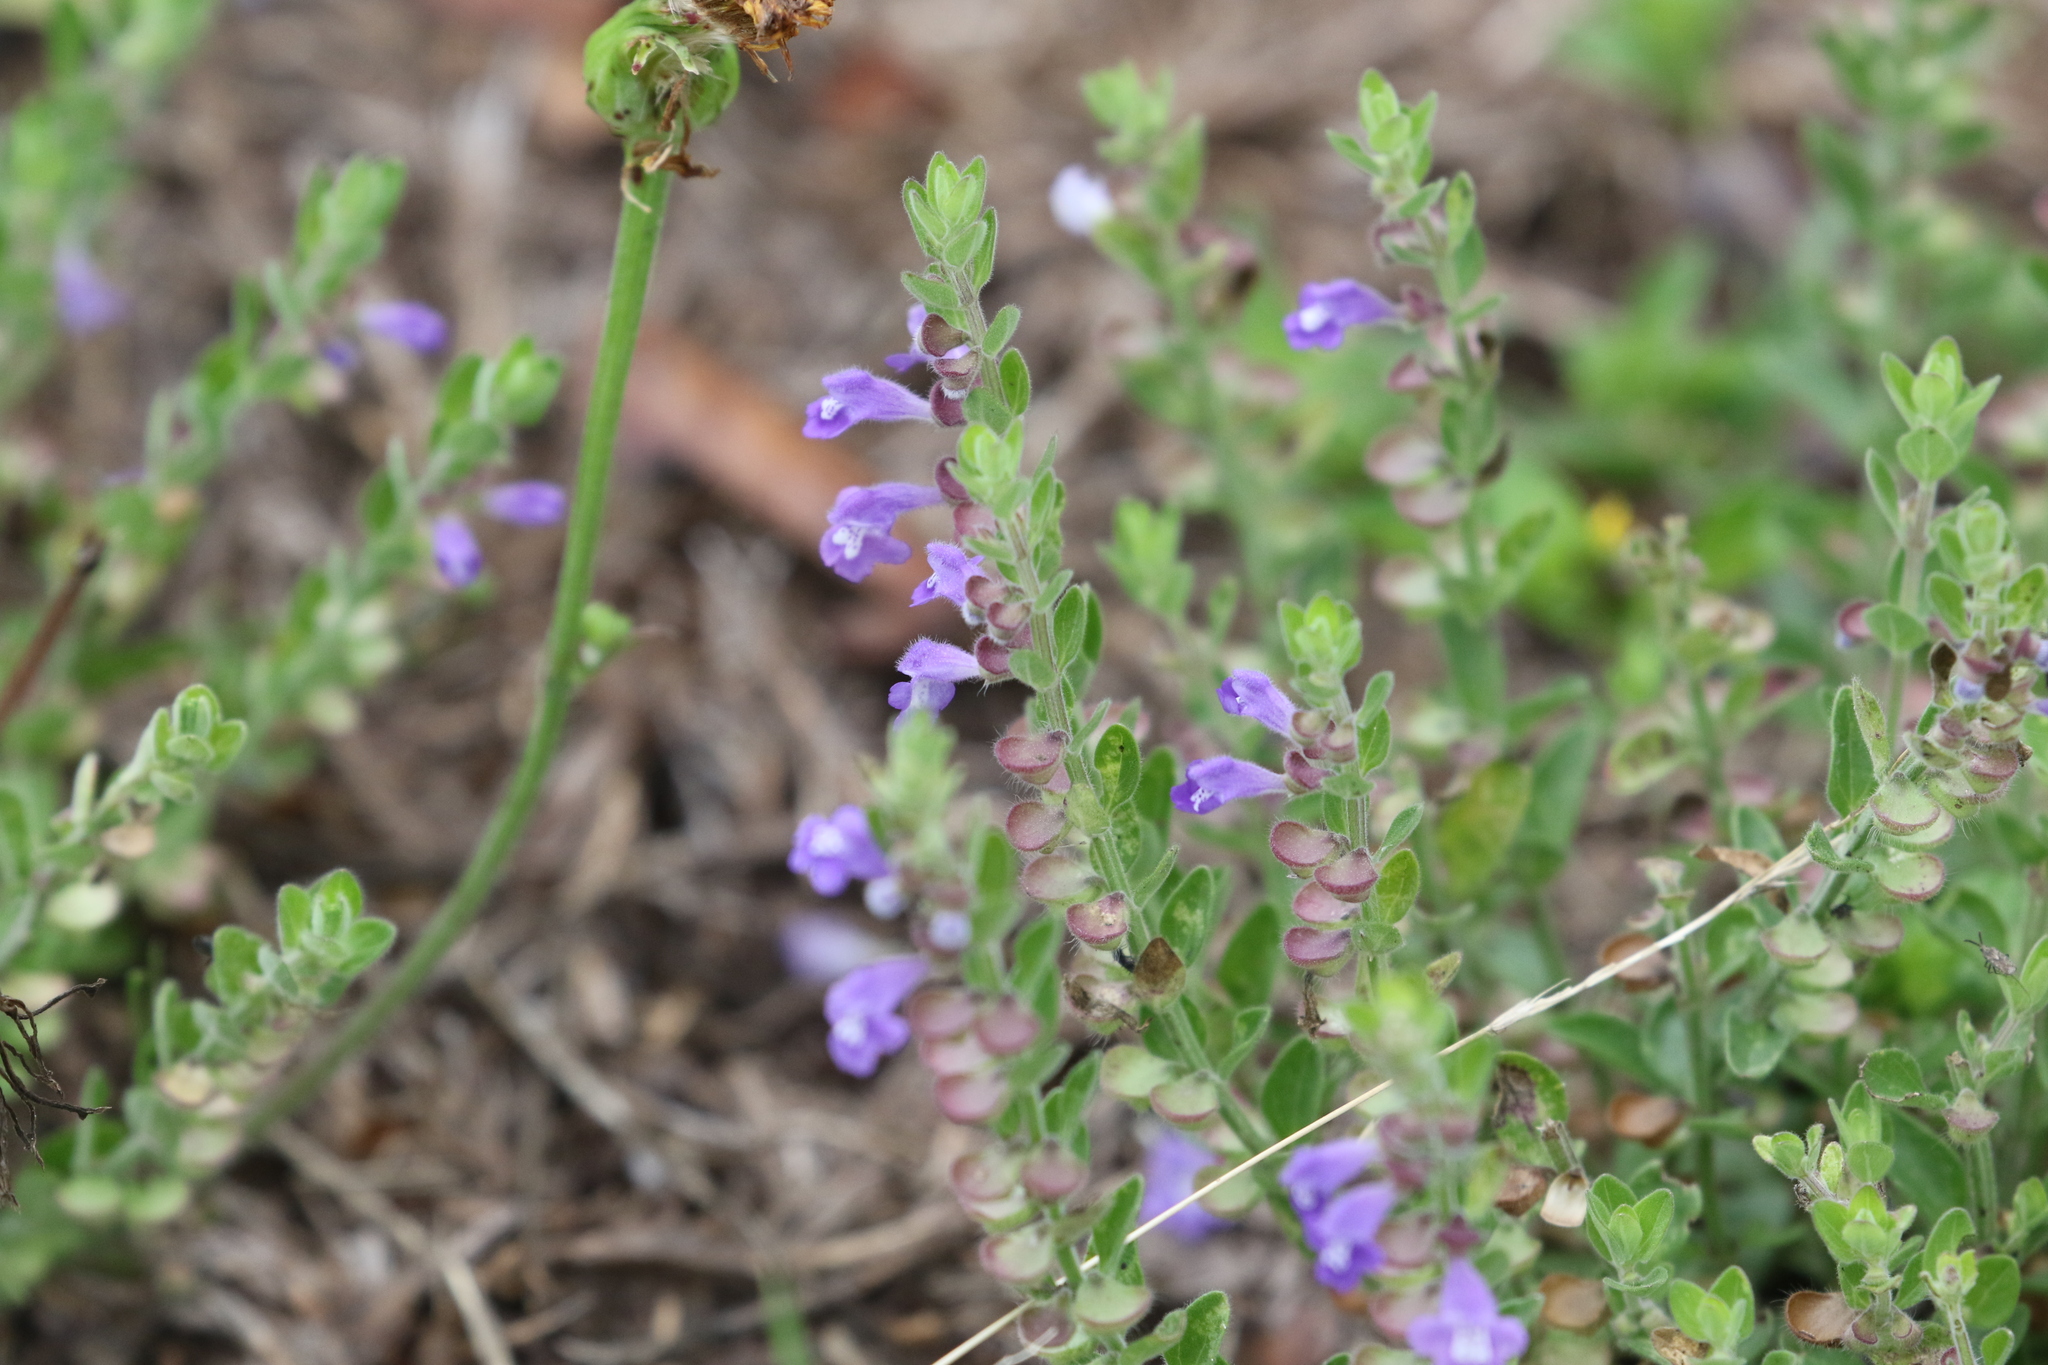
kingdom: Plantae
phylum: Tracheophyta
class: Magnoliopsida
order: Lamiales
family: Lamiaceae
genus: Scutellaria
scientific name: Scutellaria drummondii
